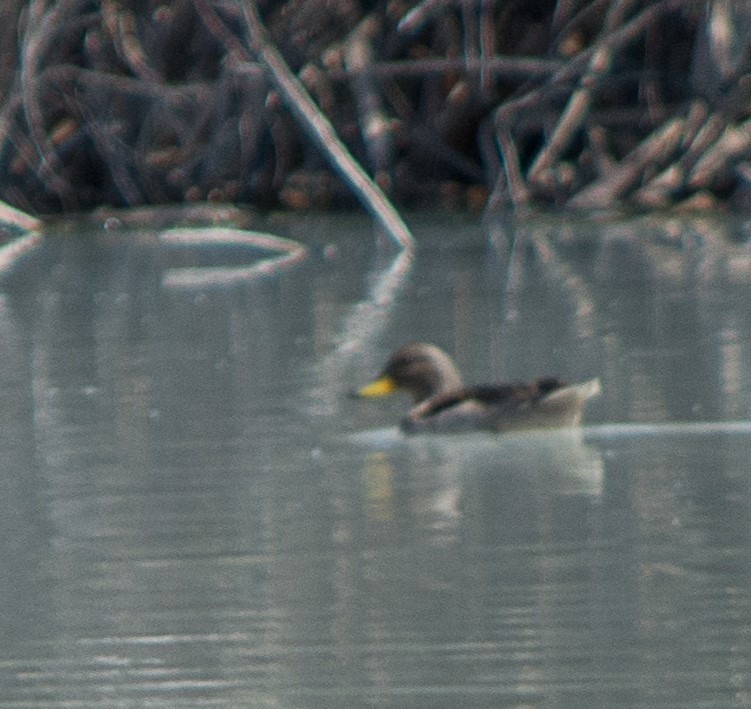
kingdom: Animalia
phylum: Chordata
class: Aves
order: Anseriformes
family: Anatidae
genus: Anas
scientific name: Anas flavirostris
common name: Yellow-billed teal
